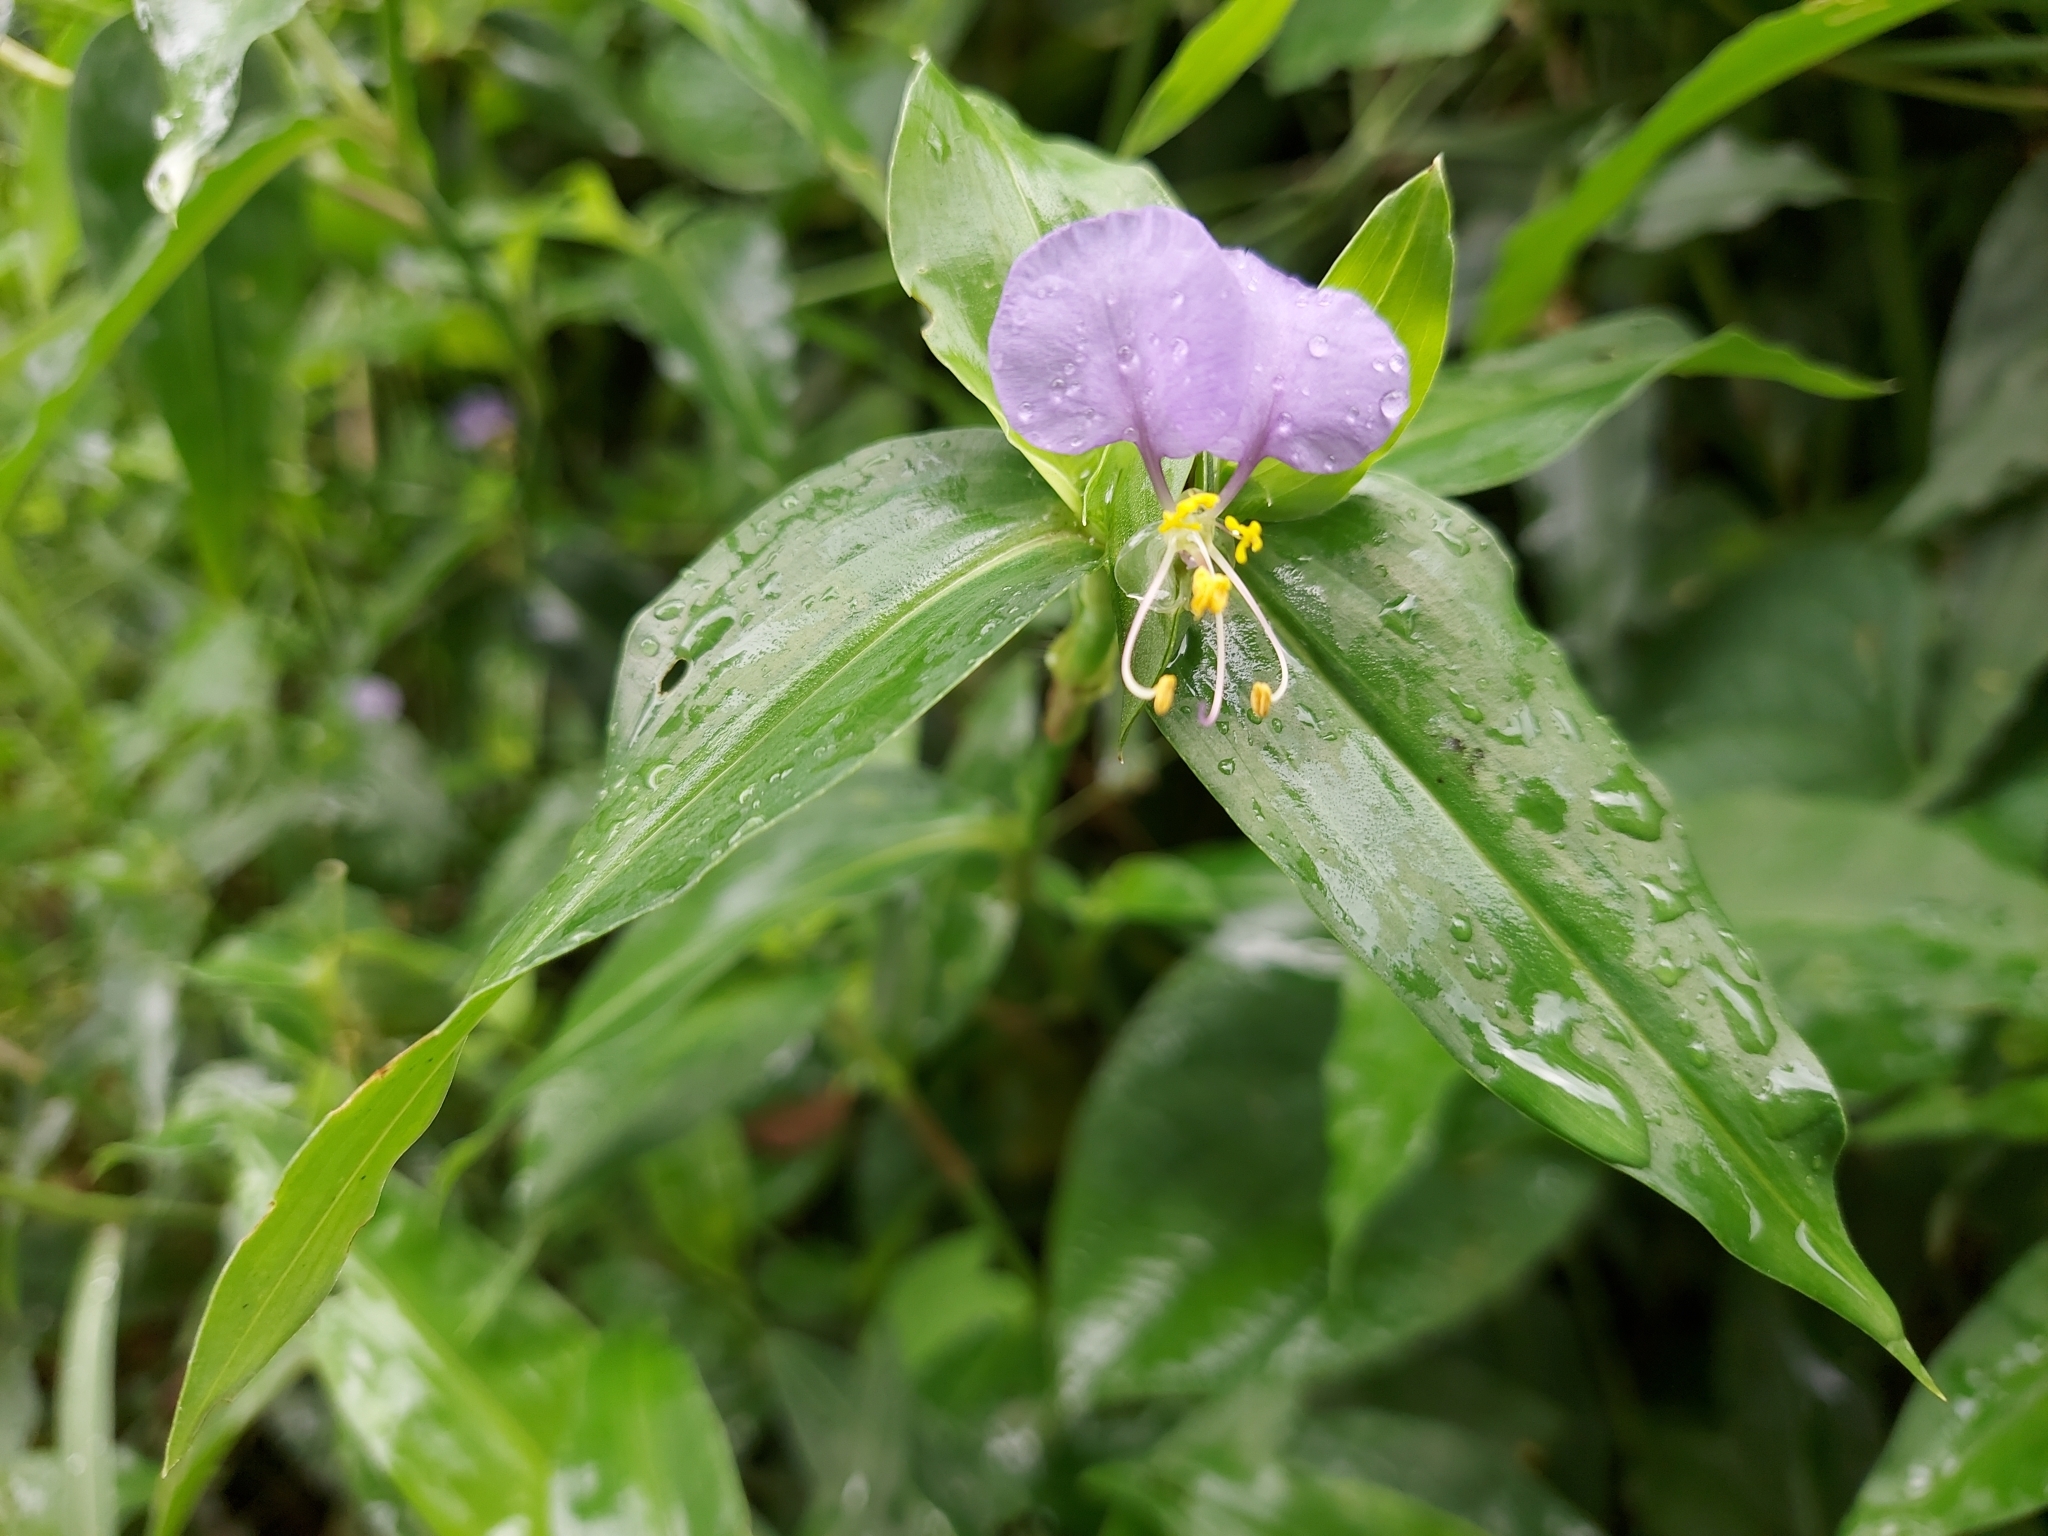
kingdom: Plantae
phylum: Tracheophyta
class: Liliopsida
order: Commelinales
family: Commelinaceae
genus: Commelina
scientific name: Commelina undulata
